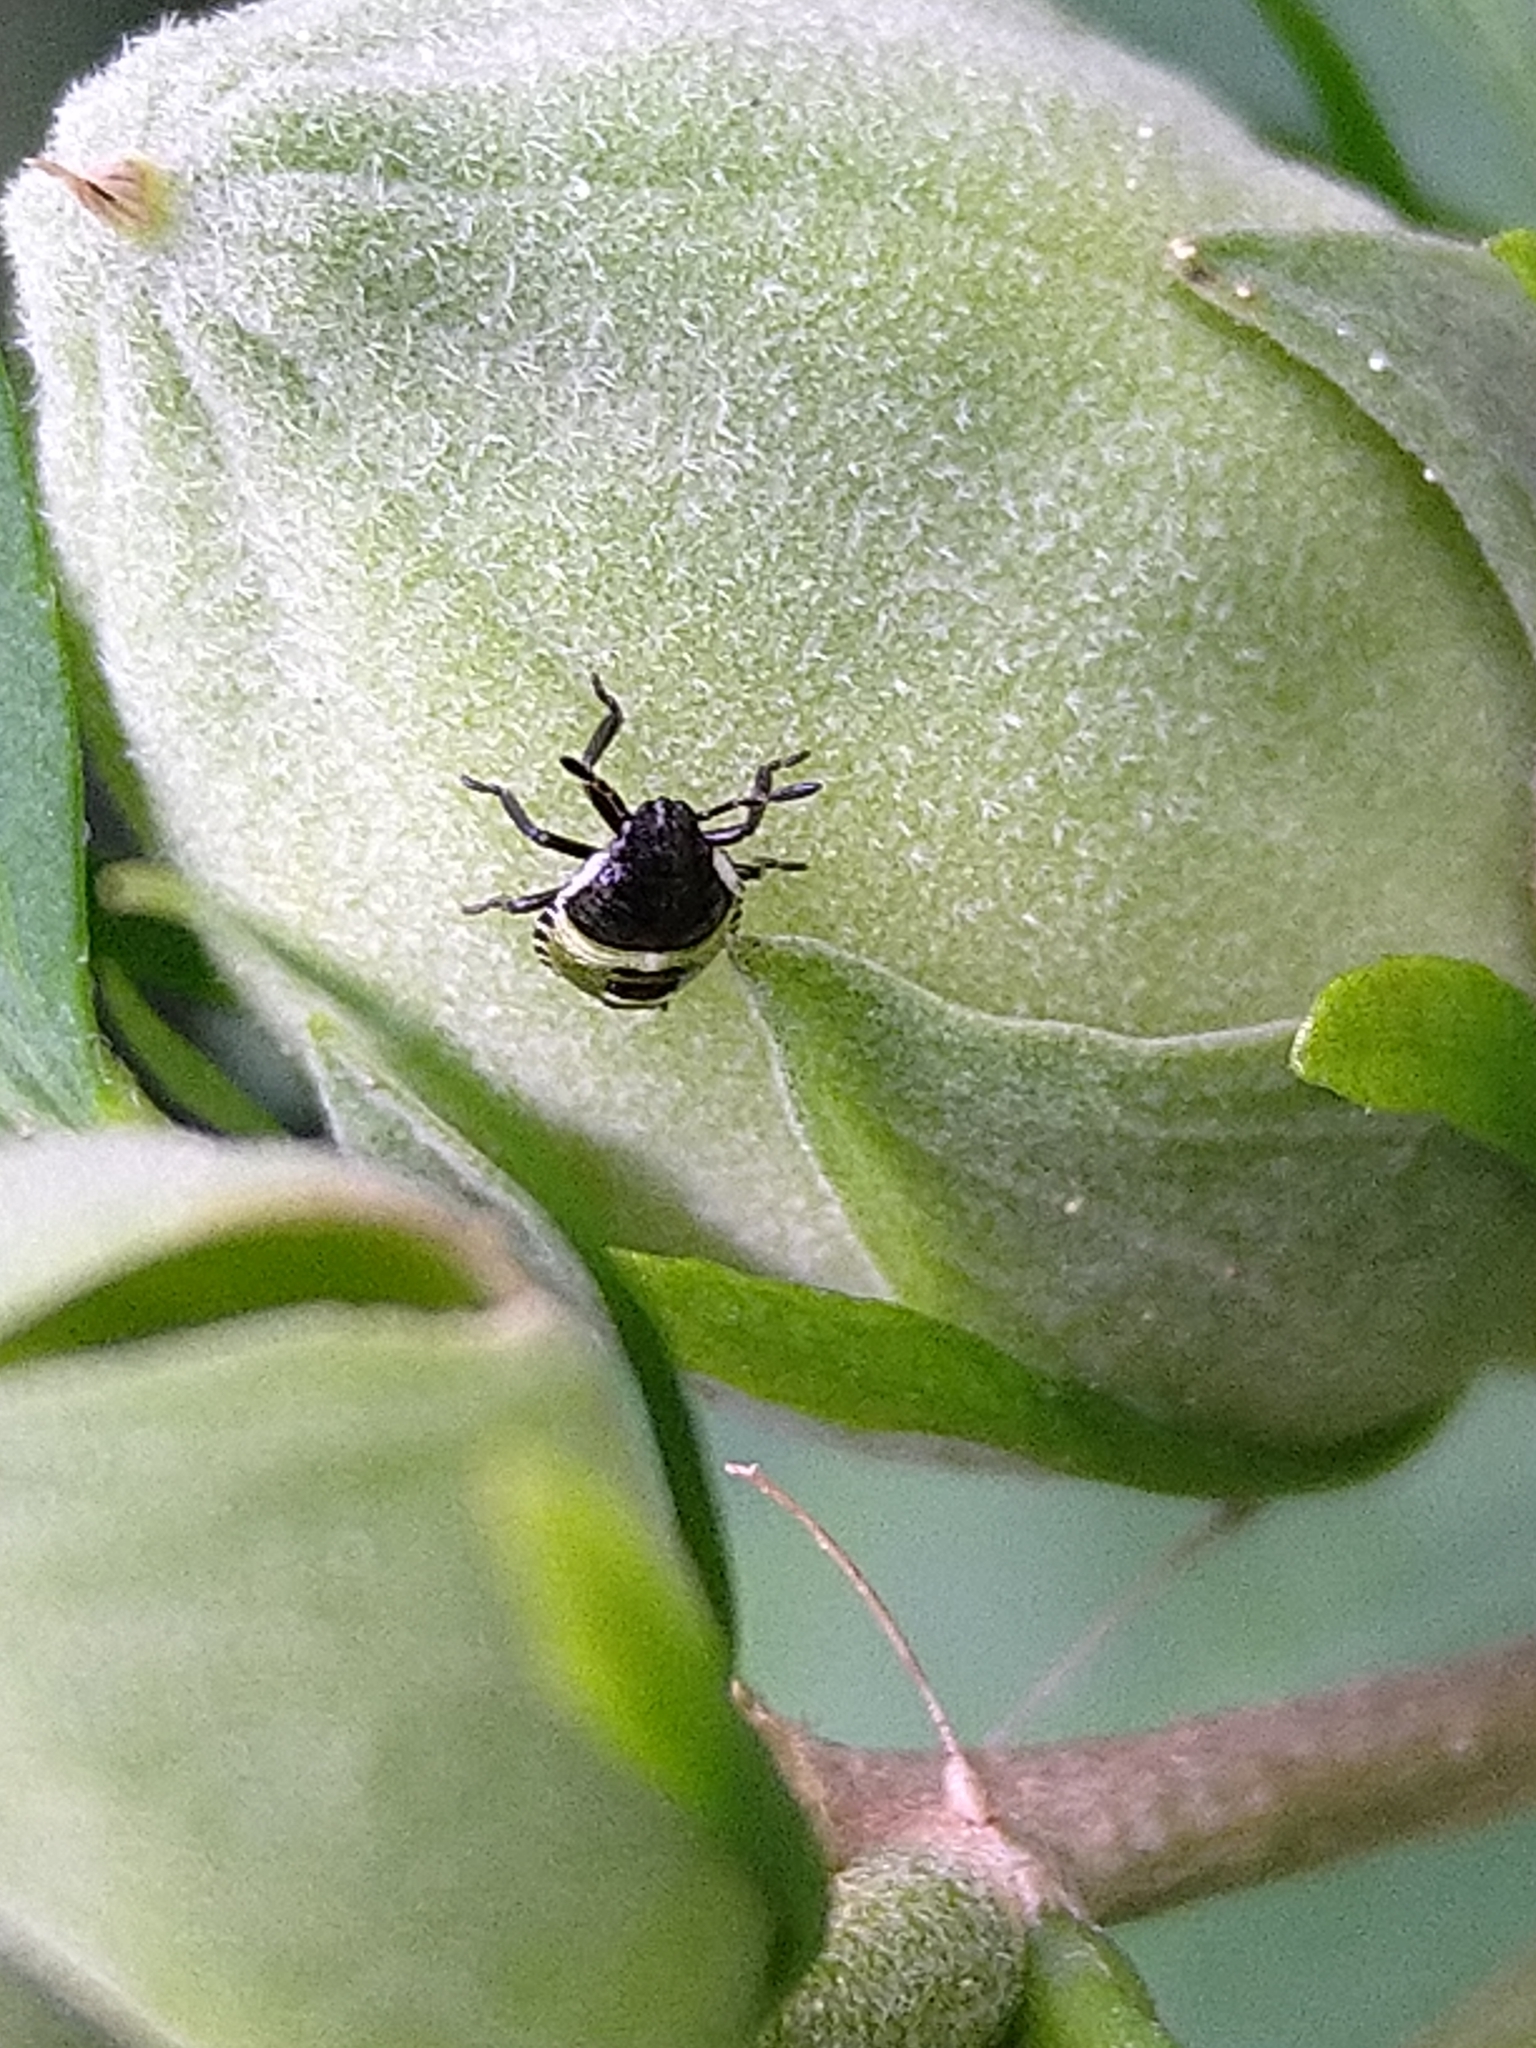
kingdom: Animalia
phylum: Arthropoda
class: Insecta
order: Hemiptera
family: Pentatomidae
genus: Palomena
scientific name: Palomena prasina
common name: Green shieldbug
